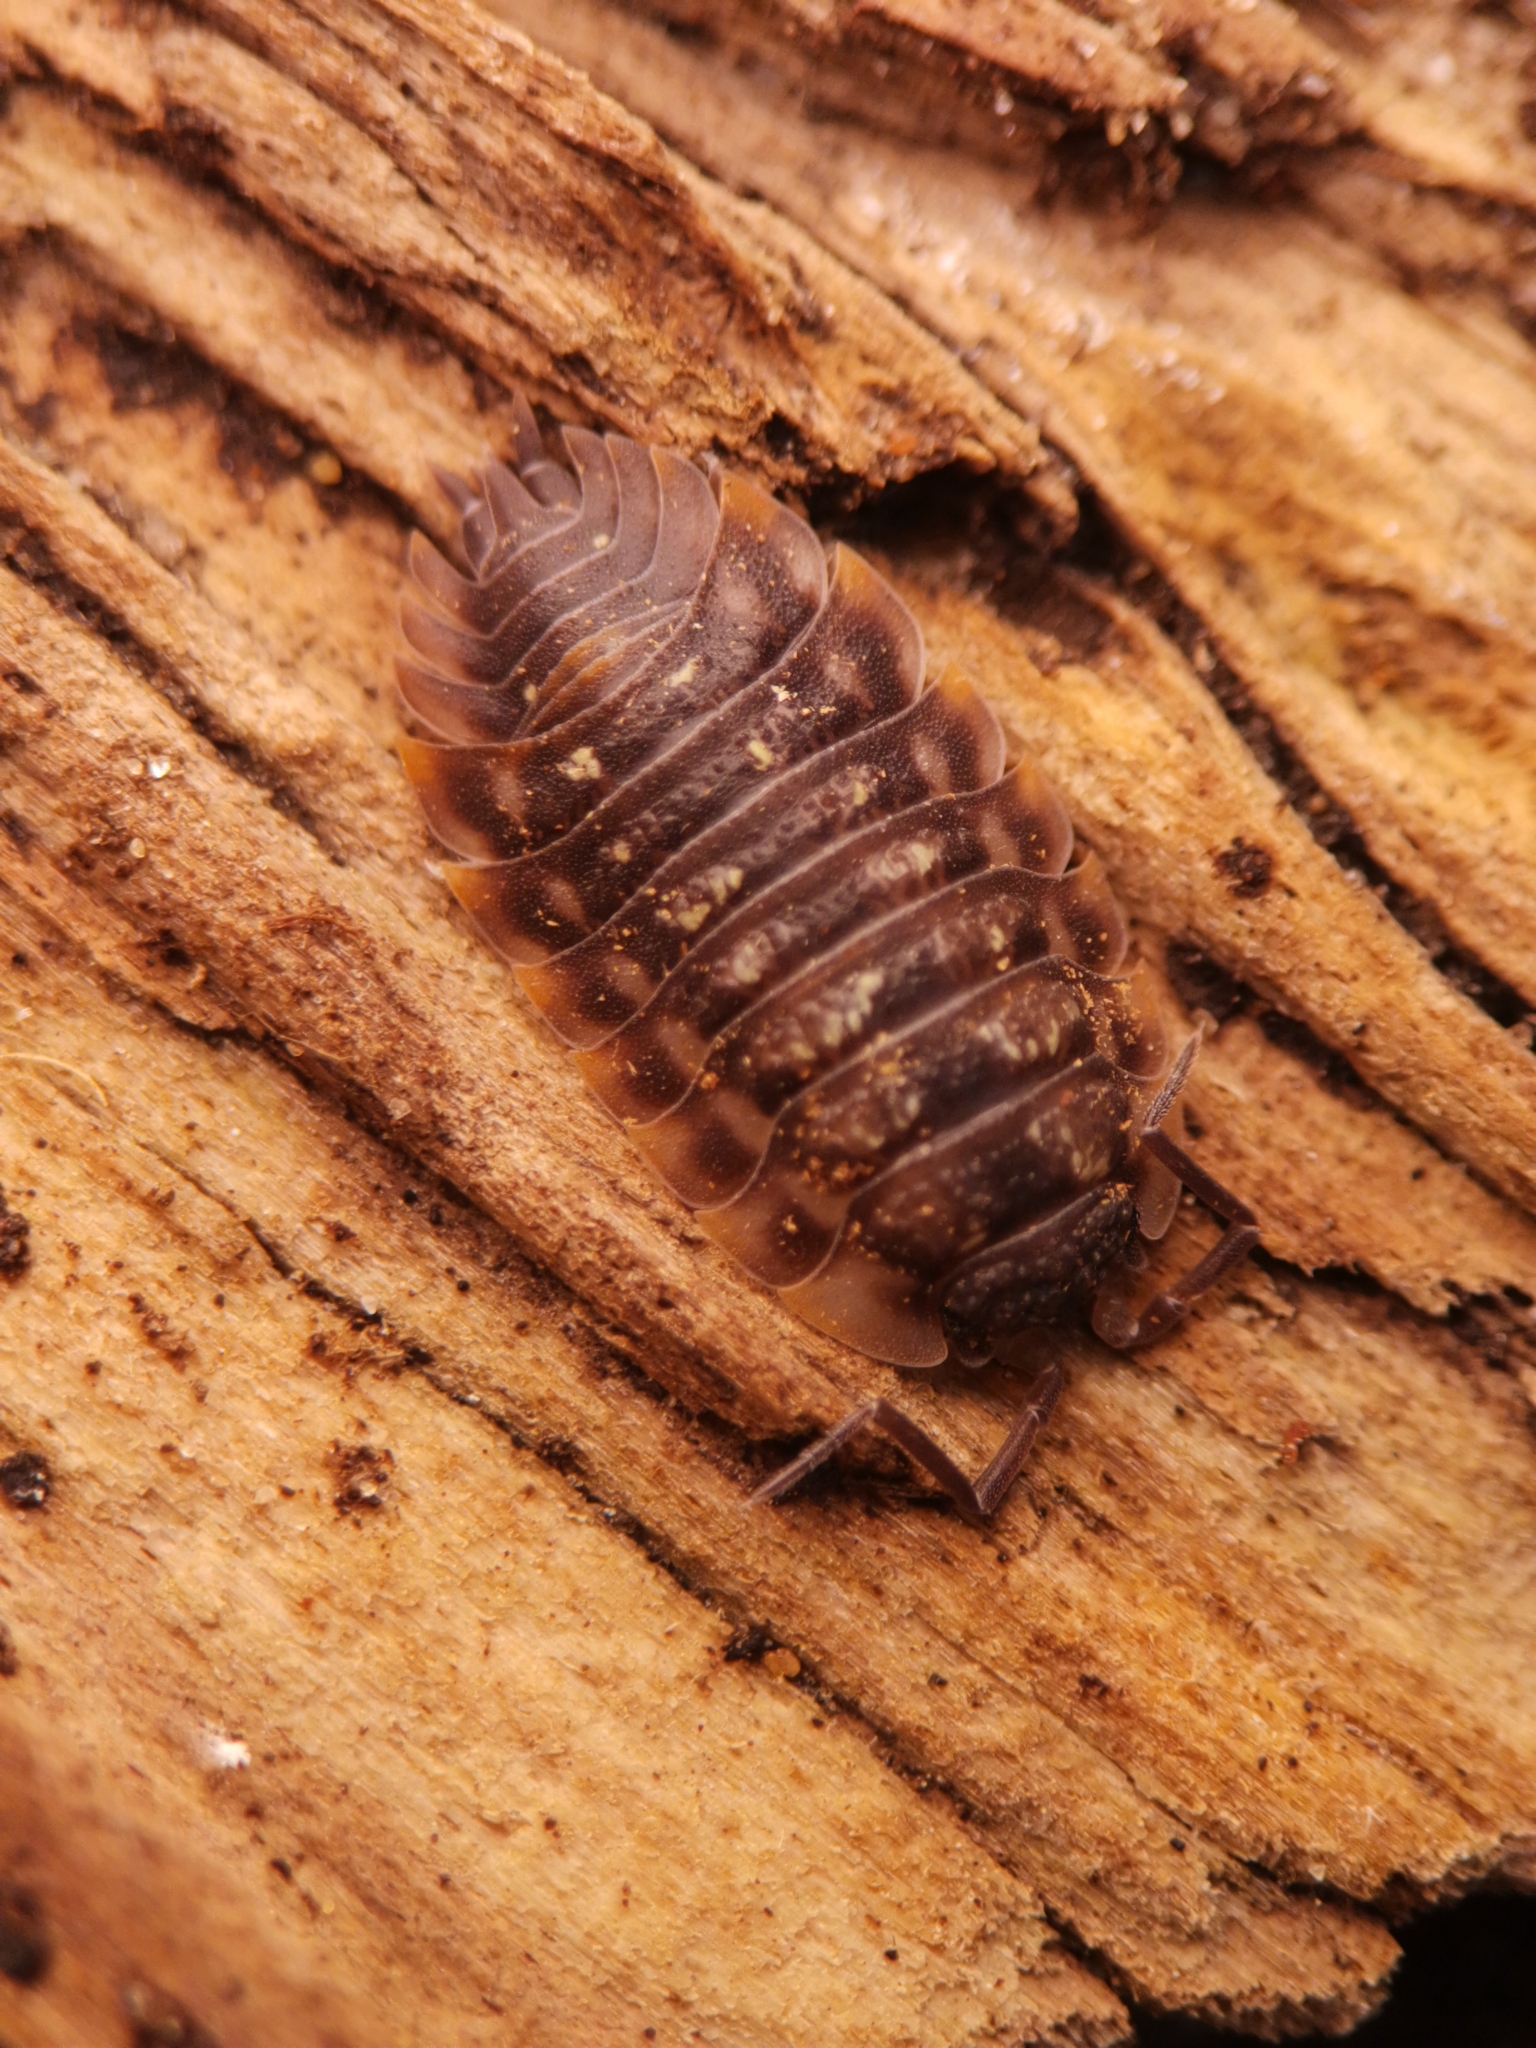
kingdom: Animalia
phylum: Arthropoda
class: Malacostraca
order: Isopoda
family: Oniscidae
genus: Oniscus
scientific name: Oniscus asellus
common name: Common shiny woodlouse
